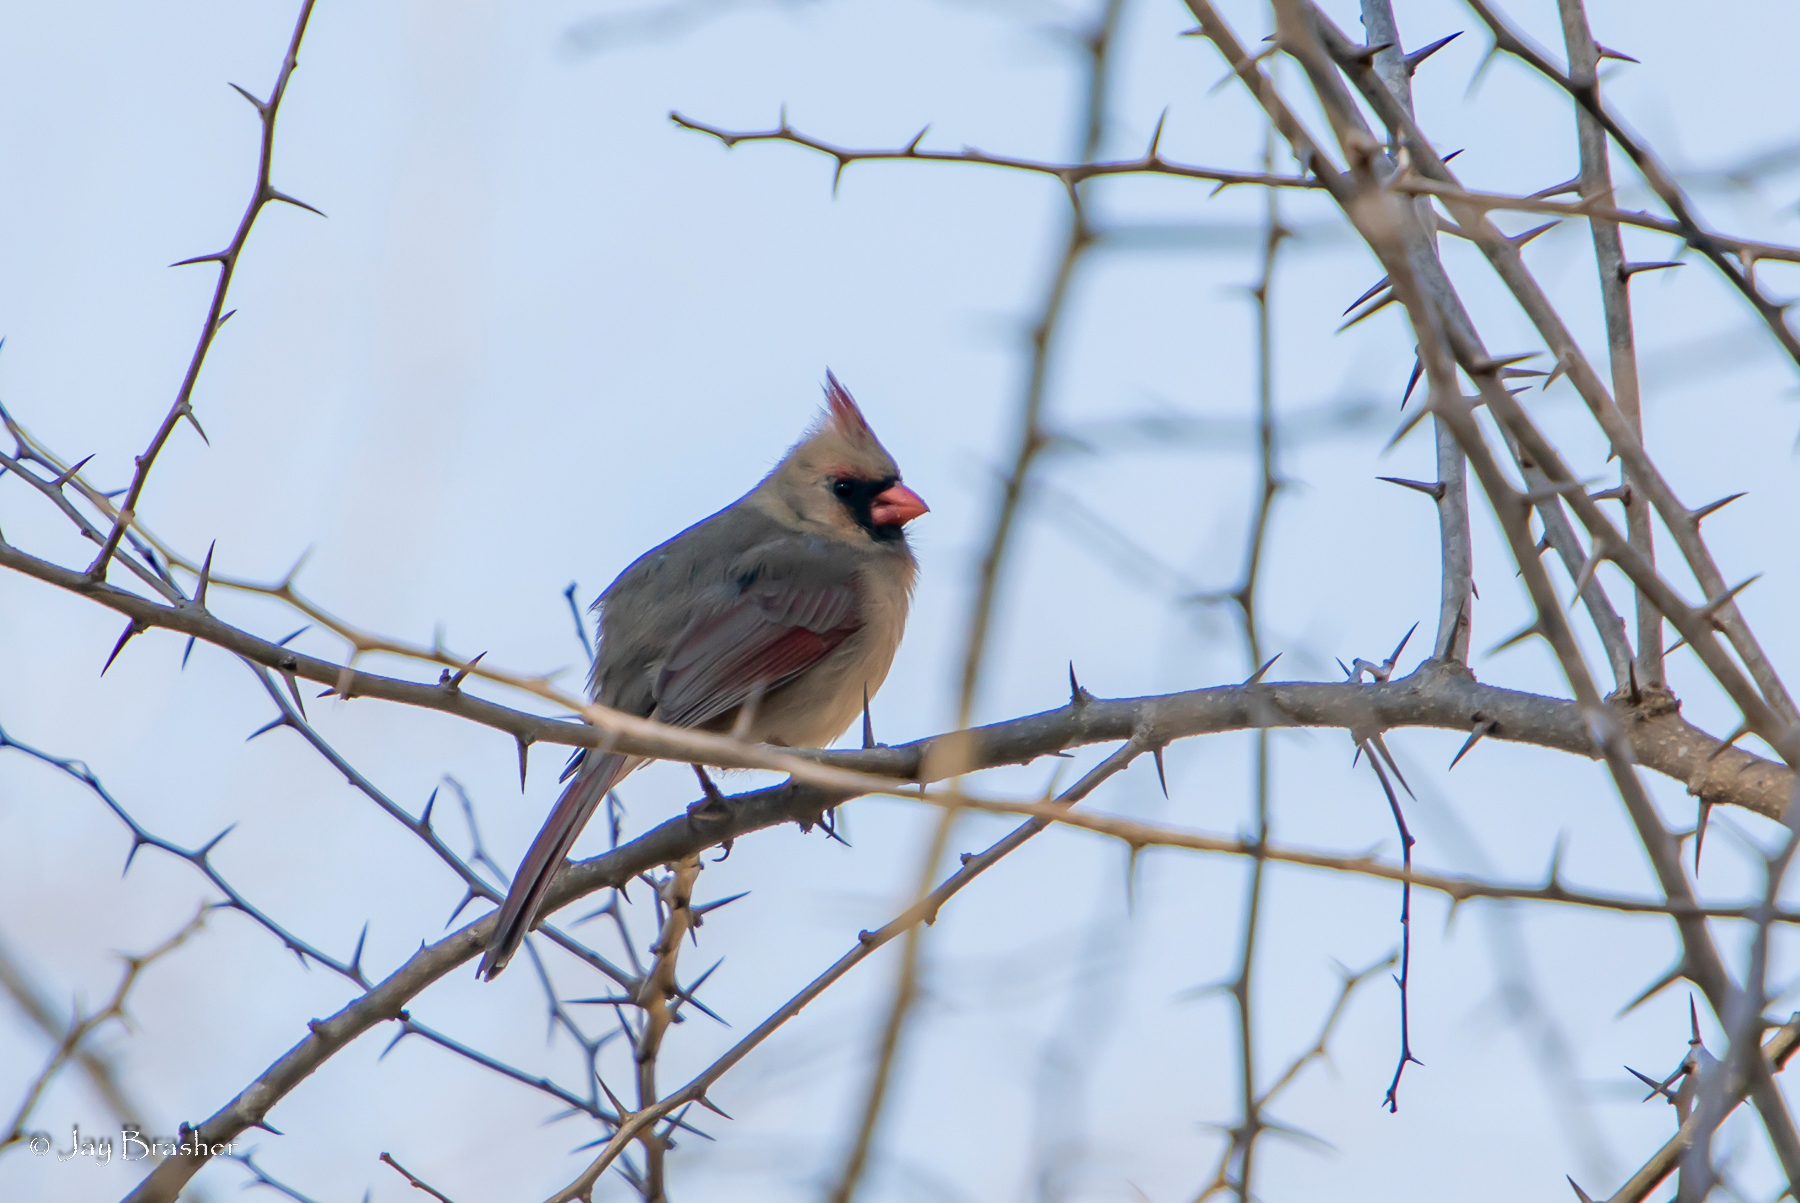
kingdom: Animalia
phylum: Chordata
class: Aves
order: Passeriformes
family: Cardinalidae
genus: Cardinalis
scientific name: Cardinalis cardinalis
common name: Northern cardinal
